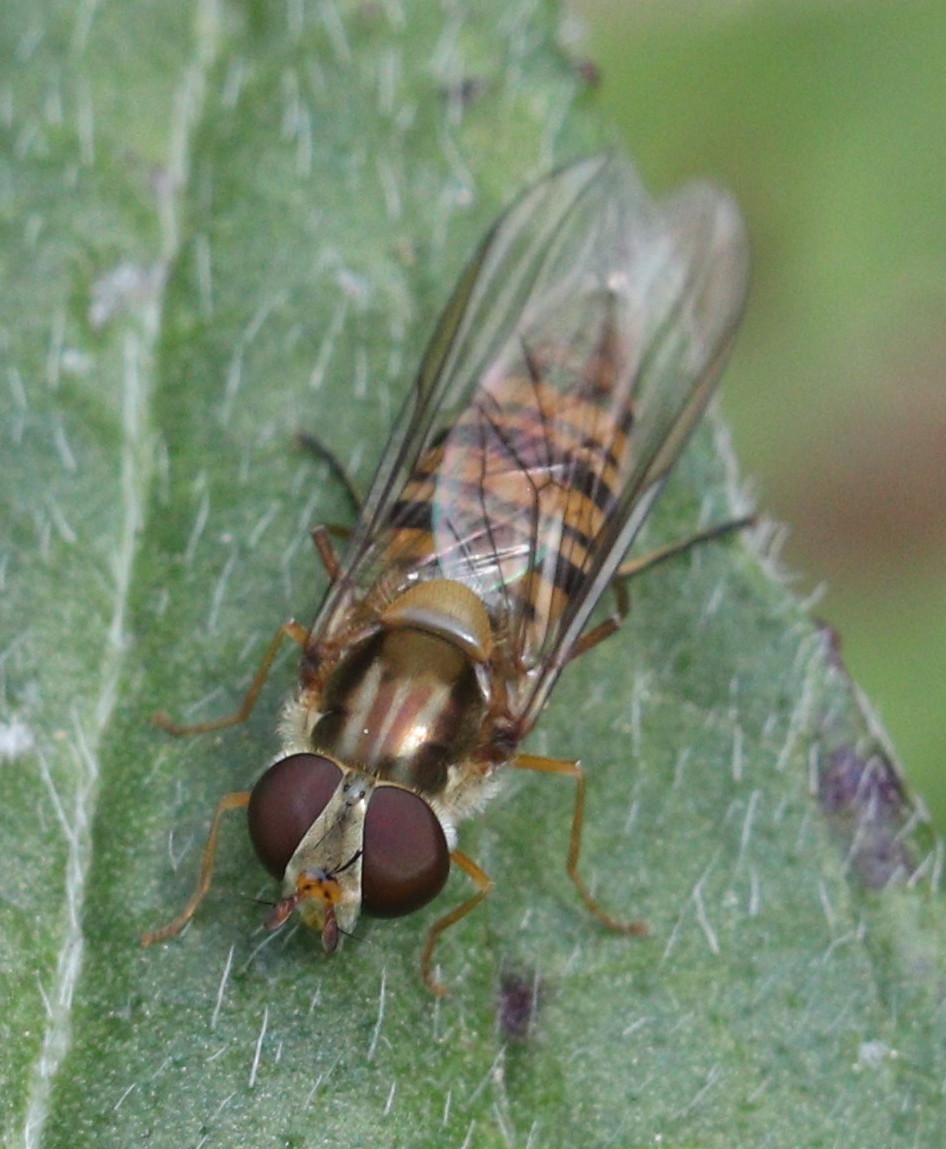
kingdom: Animalia
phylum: Arthropoda
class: Insecta
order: Diptera
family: Syrphidae
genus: Episyrphus
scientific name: Episyrphus balteatus
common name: Marmalade hoverfly
